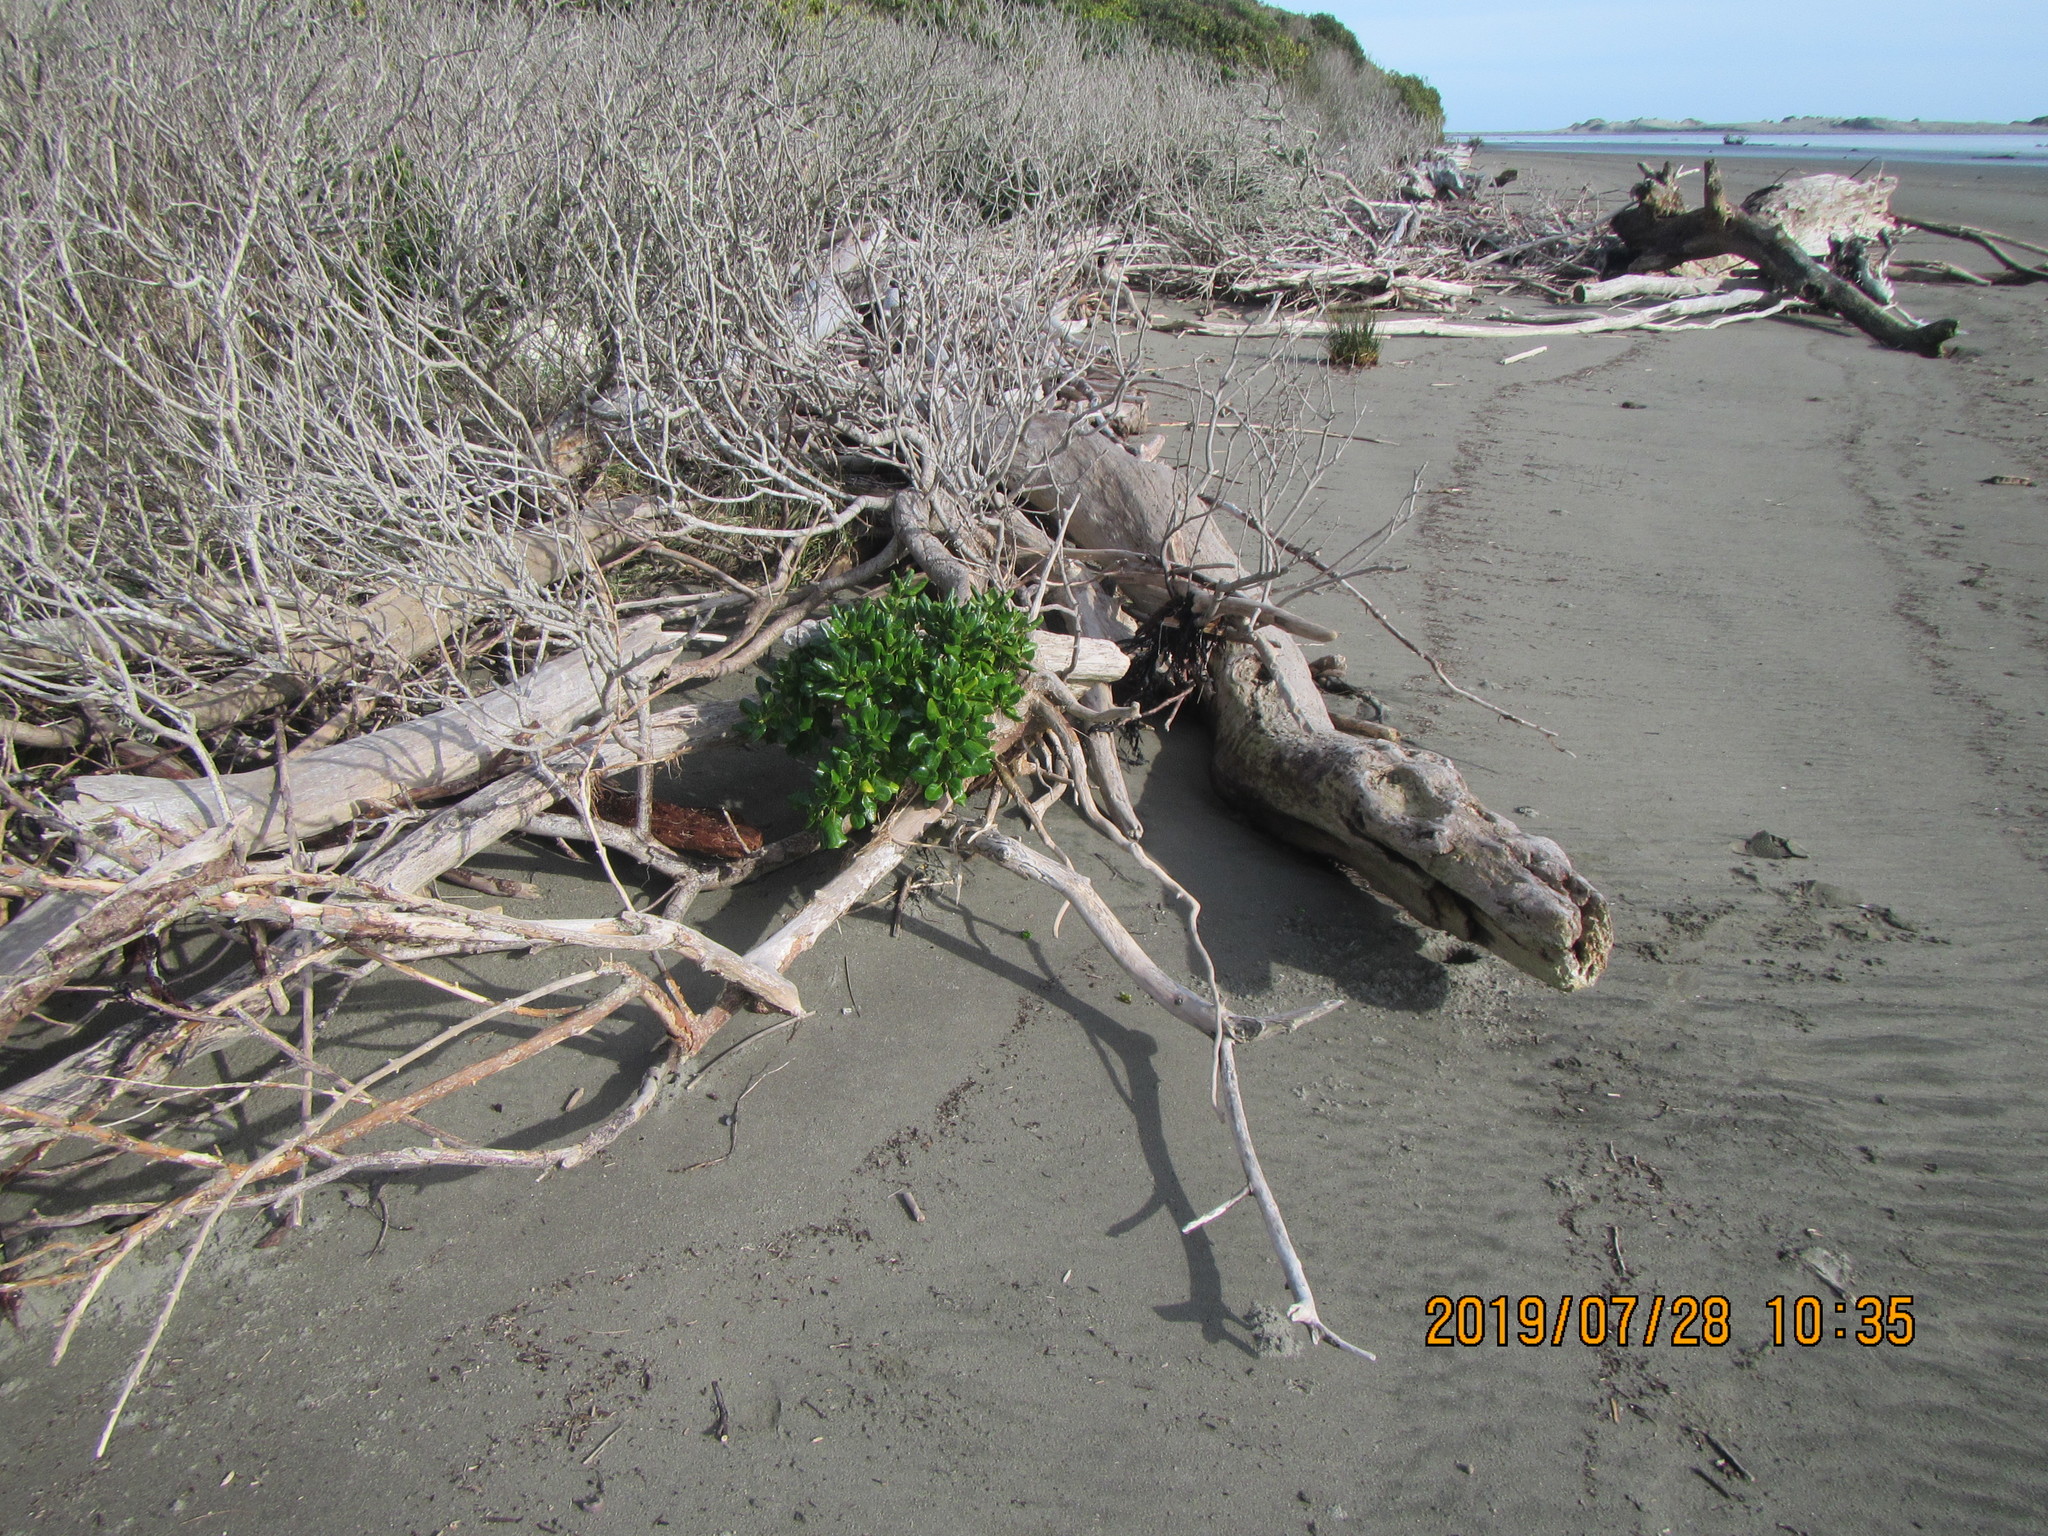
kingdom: Plantae
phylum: Tracheophyta
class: Magnoliopsida
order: Gentianales
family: Rubiaceae
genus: Coprosma
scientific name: Coprosma repens
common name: Tree bedstraw
